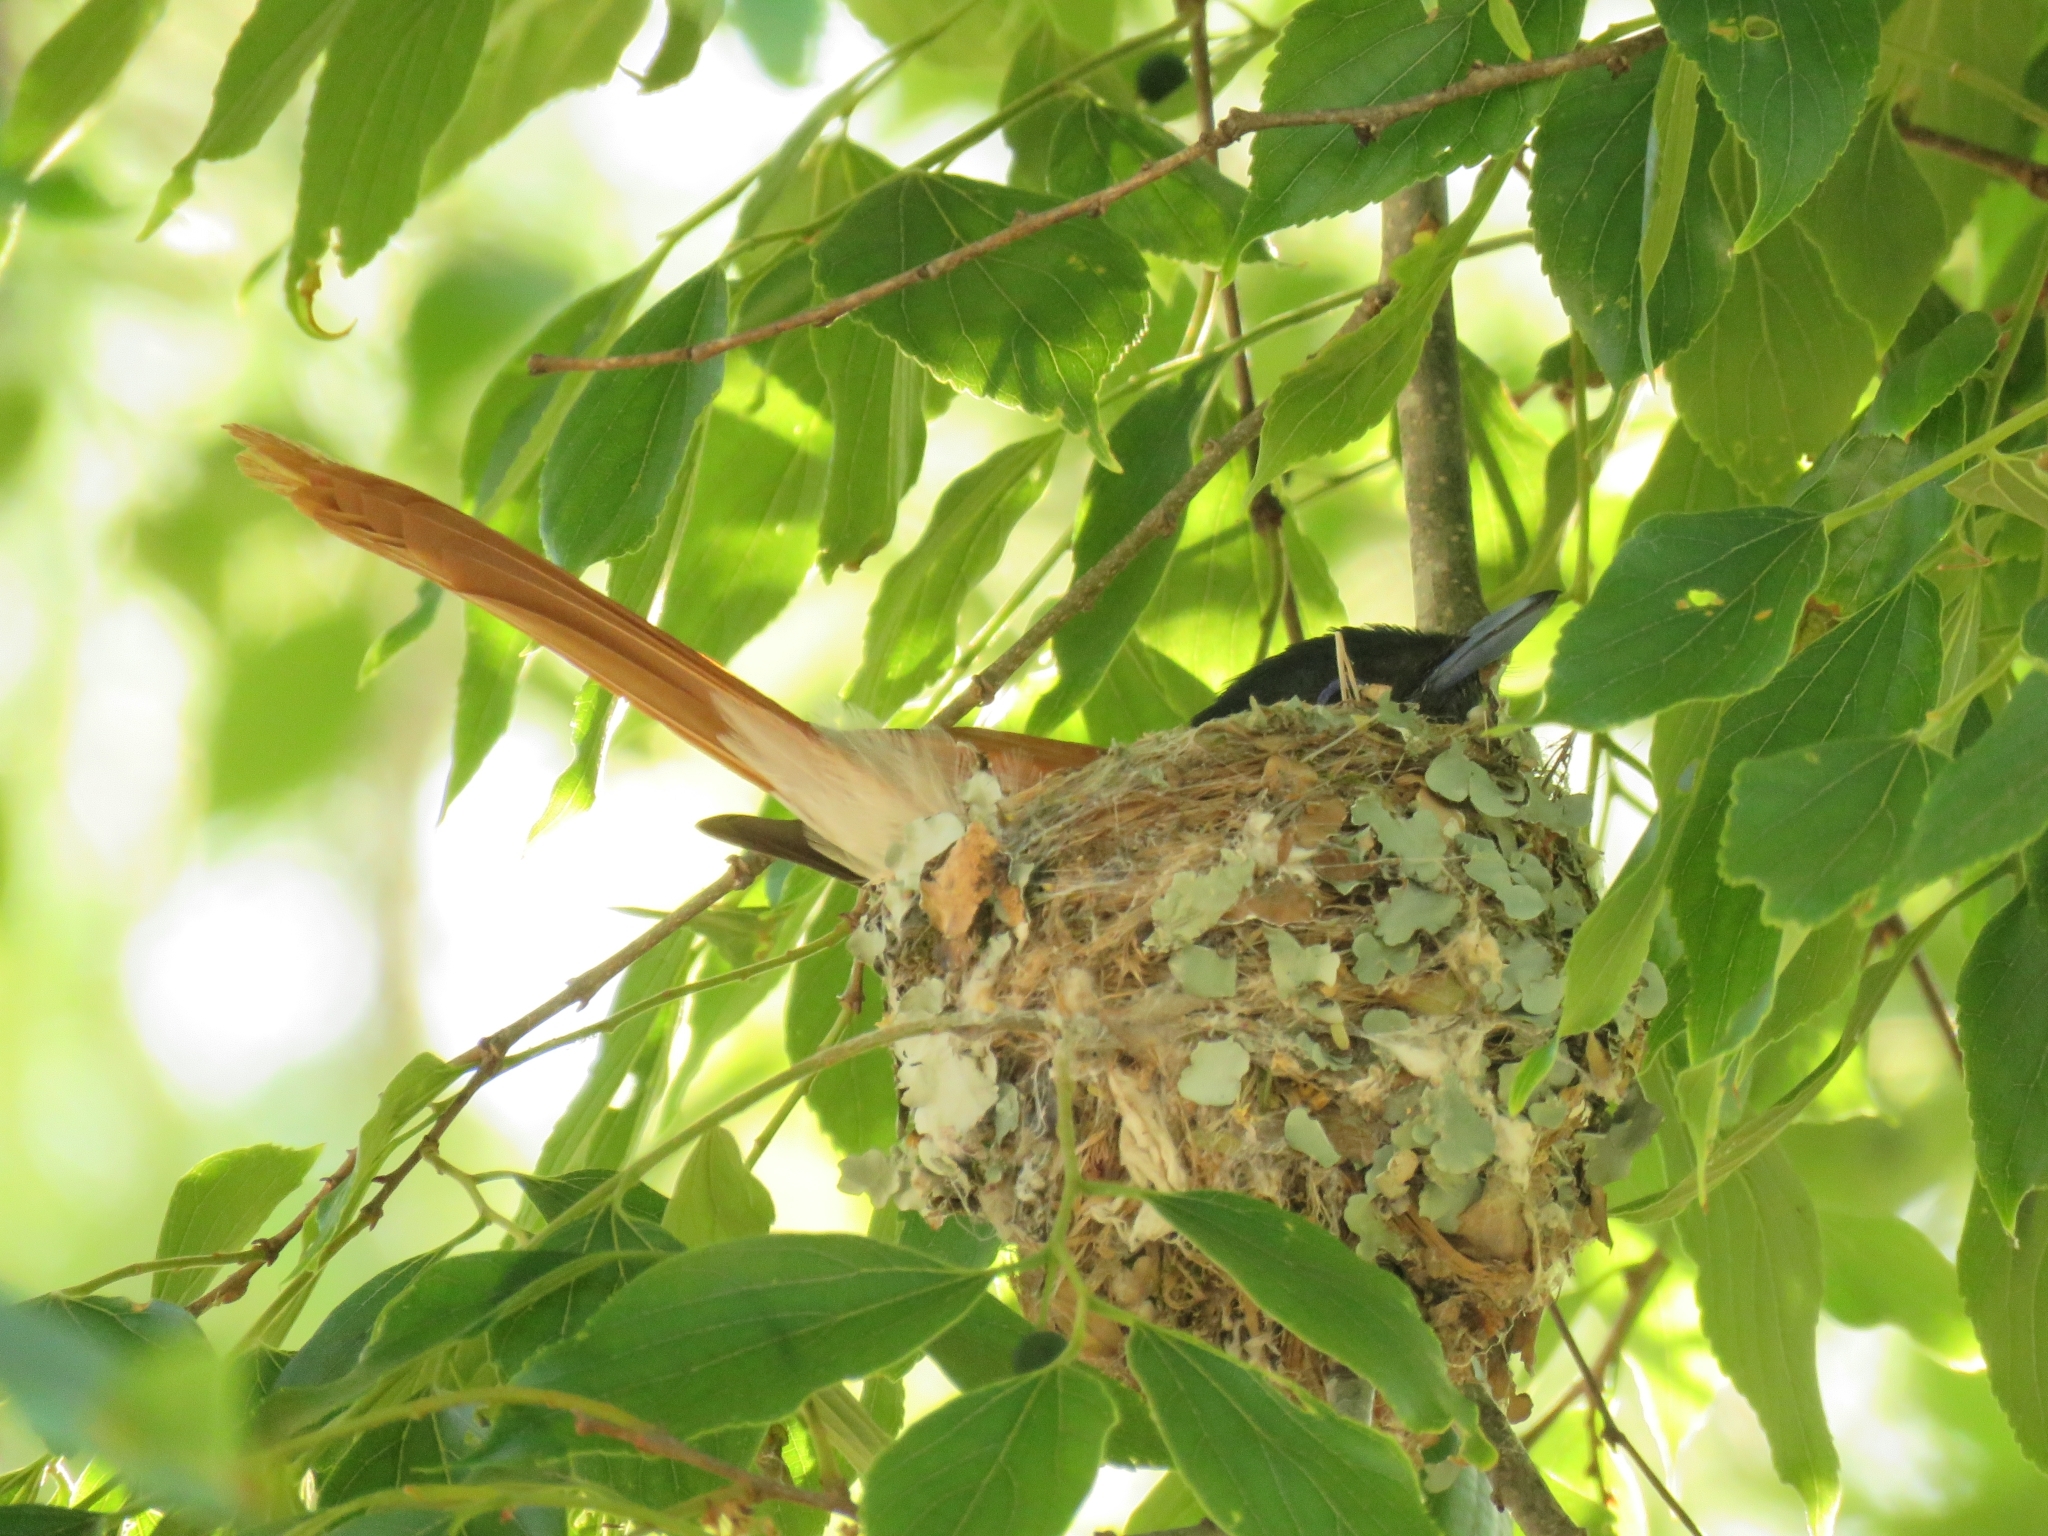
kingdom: Animalia
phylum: Chordata
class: Aves
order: Passeriformes
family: Monarchidae
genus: Terpsiphone
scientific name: Terpsiphone viridis
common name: African paradise flycatcher
